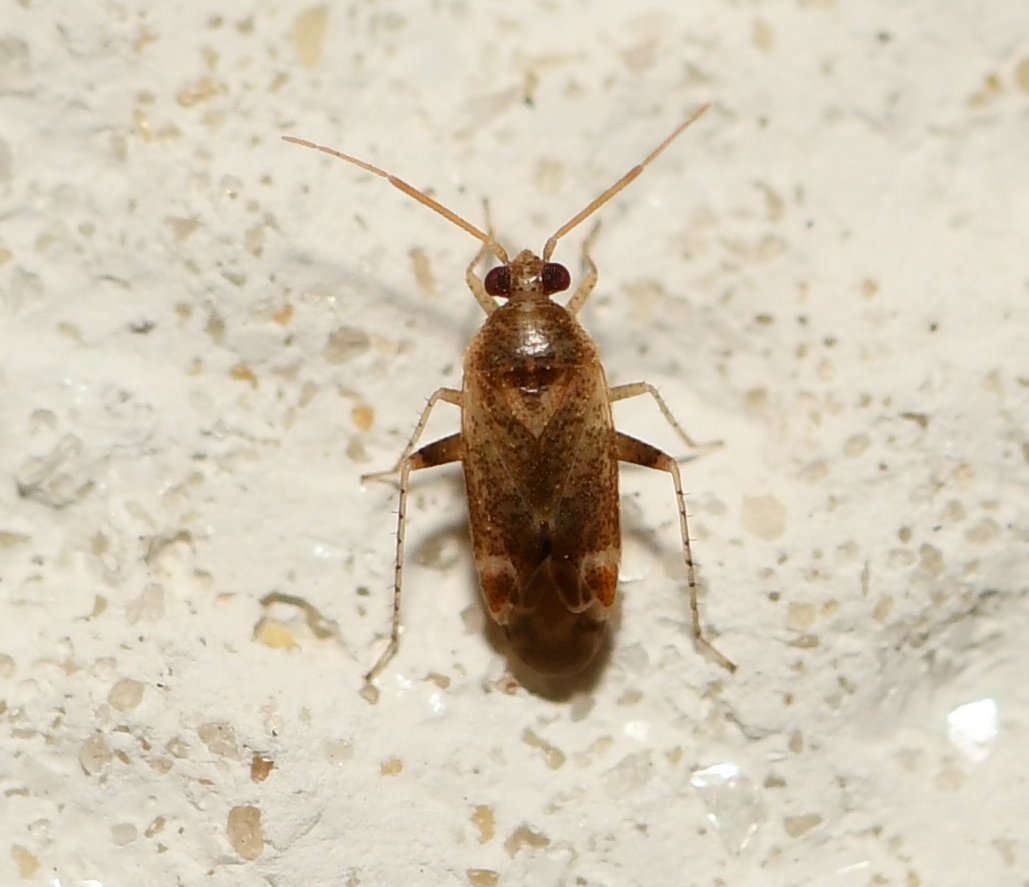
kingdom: Animalia
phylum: Arthropoda
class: Insecta
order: Hemiptera
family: Miridae
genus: Hamatophylus
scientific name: Hamatophylus guttulosus
